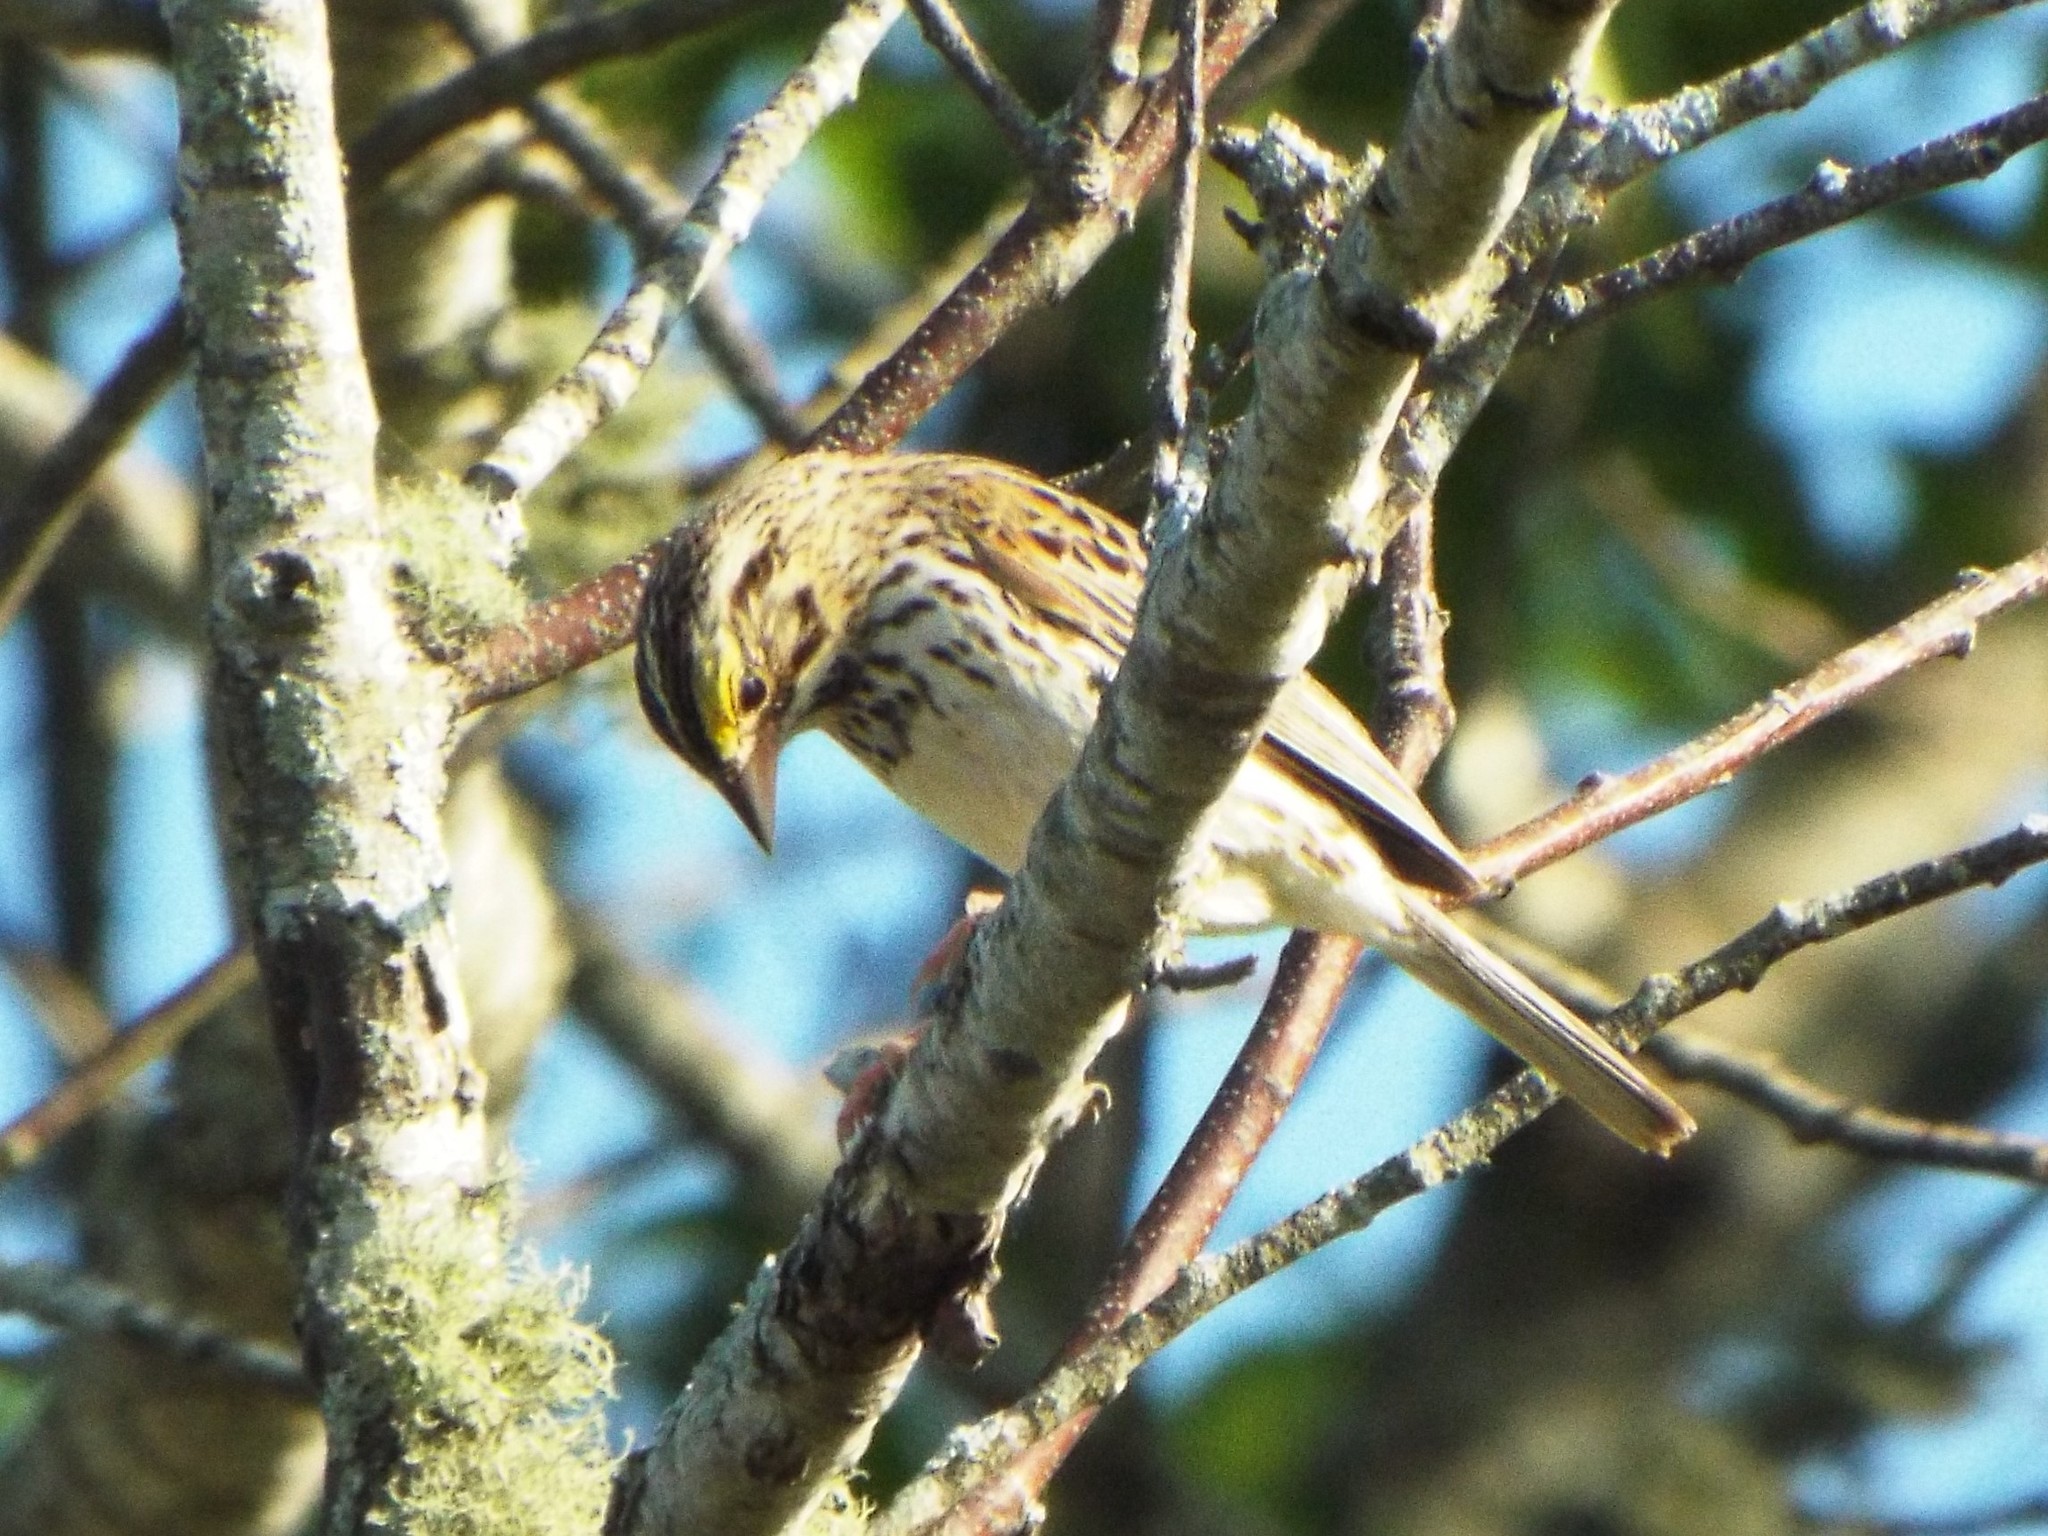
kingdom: Animalia
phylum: Chordata
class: Aves
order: Passeriformes
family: Passerellidae
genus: Passerculus
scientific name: Passerculus sandwichensis
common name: Savannah sparrow
